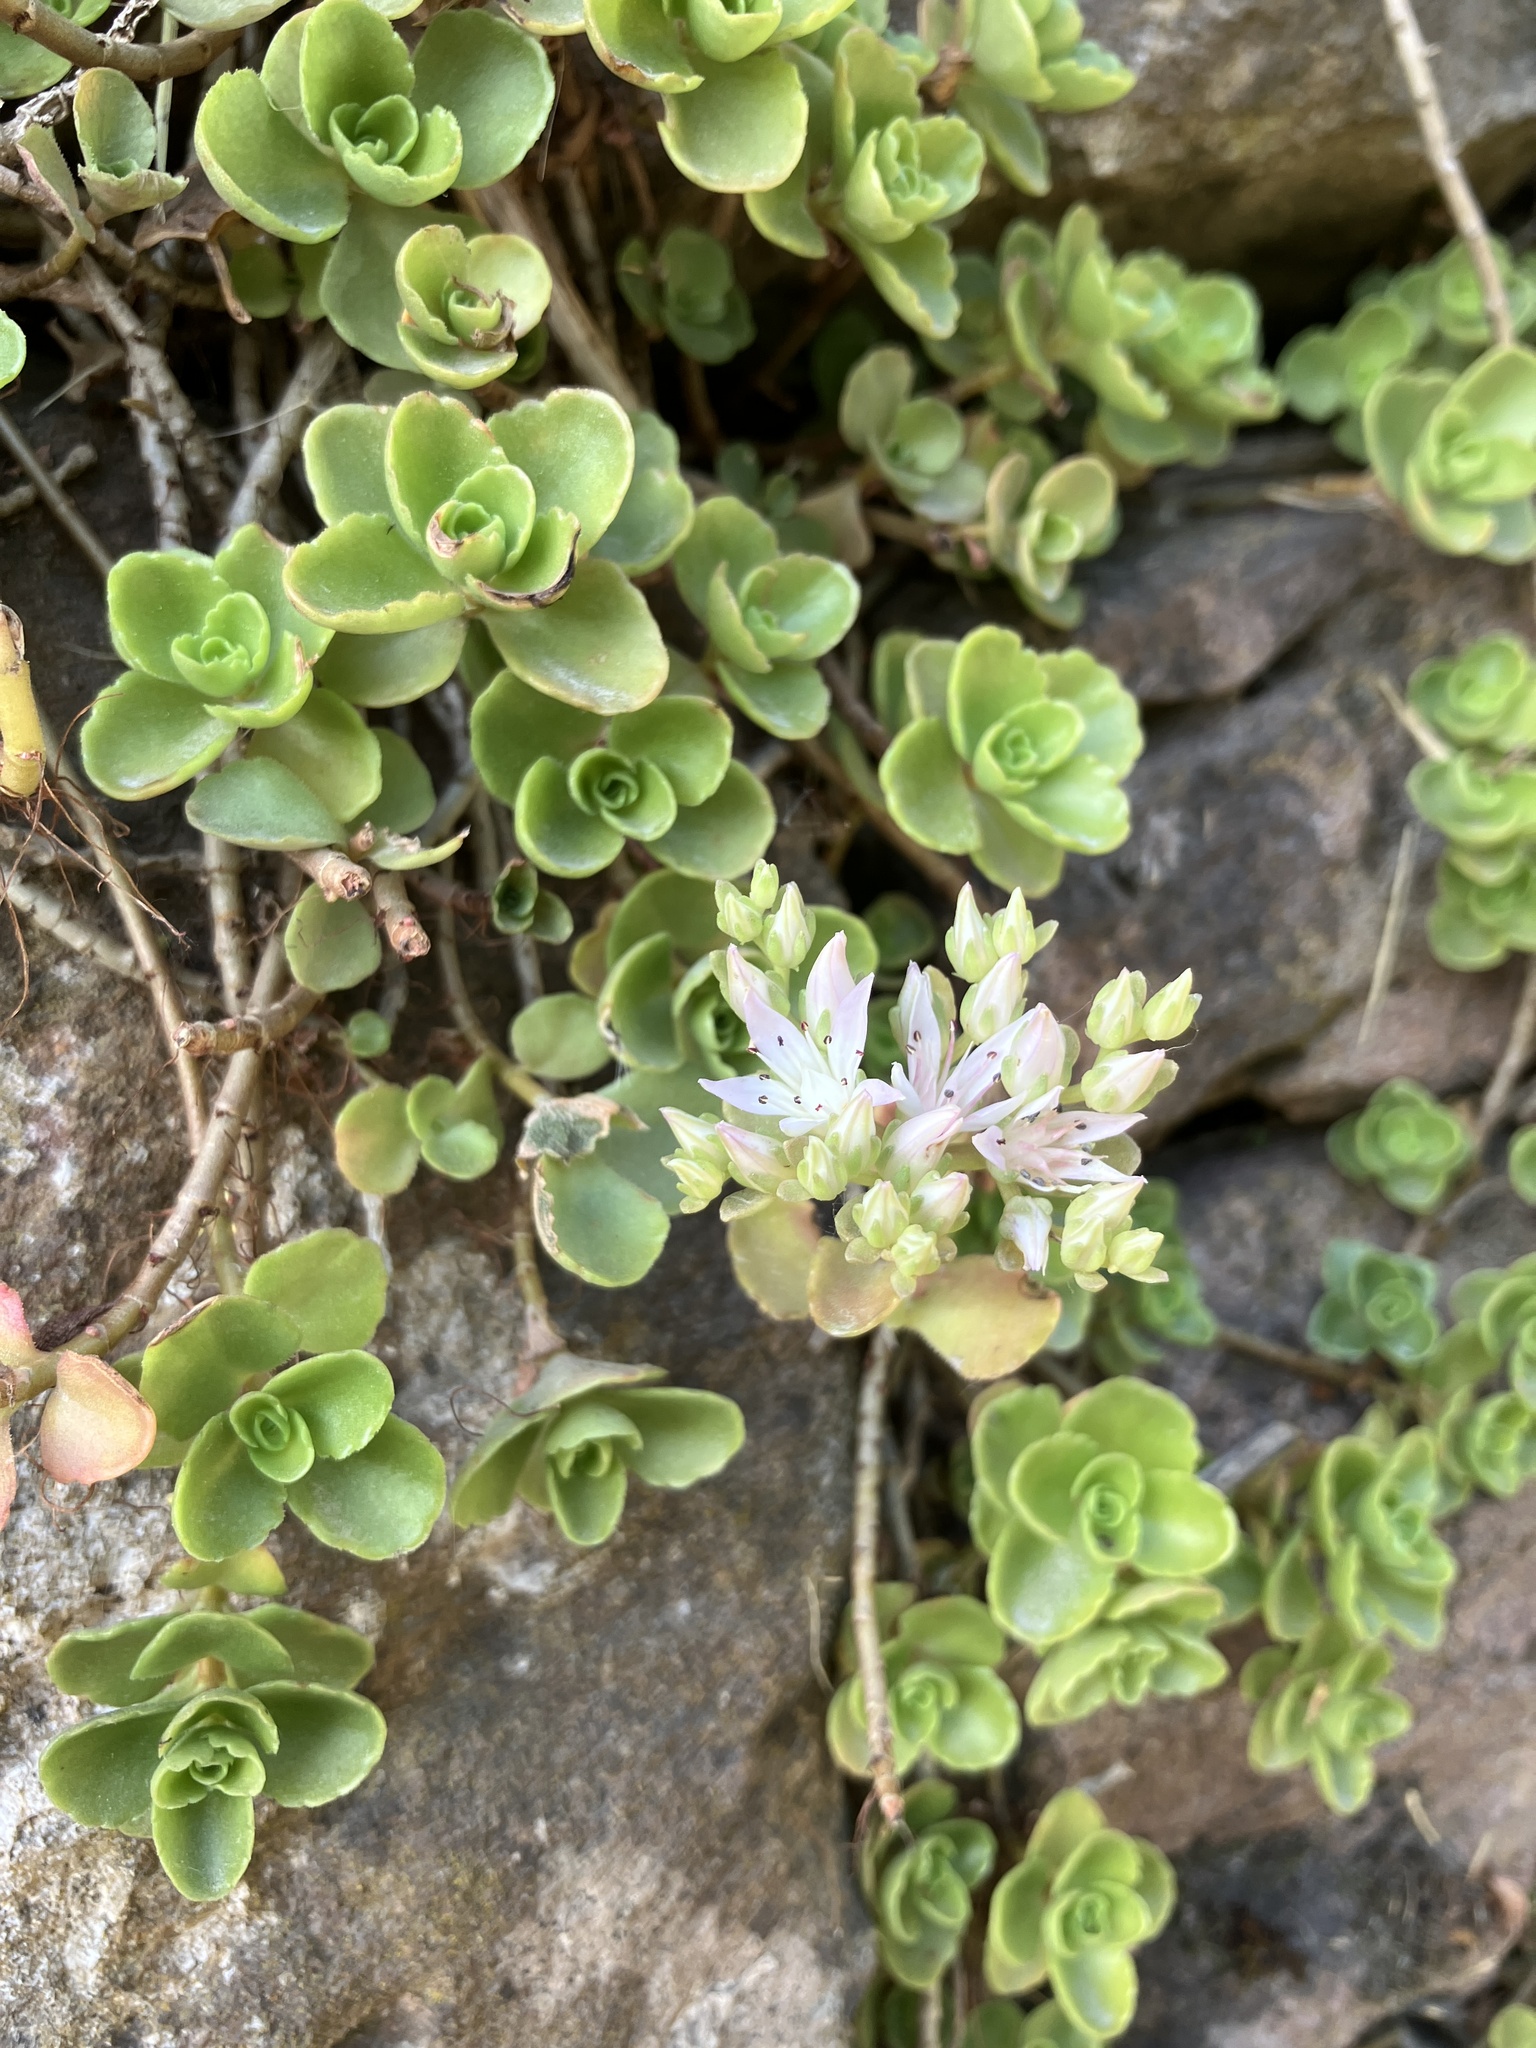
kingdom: Plantae
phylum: Tracheophyta
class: Magnoliopsida
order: Saxifragales
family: Crassulaceae
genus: Phedimus
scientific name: Phedimus spurius
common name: Caucasian stonecrop
